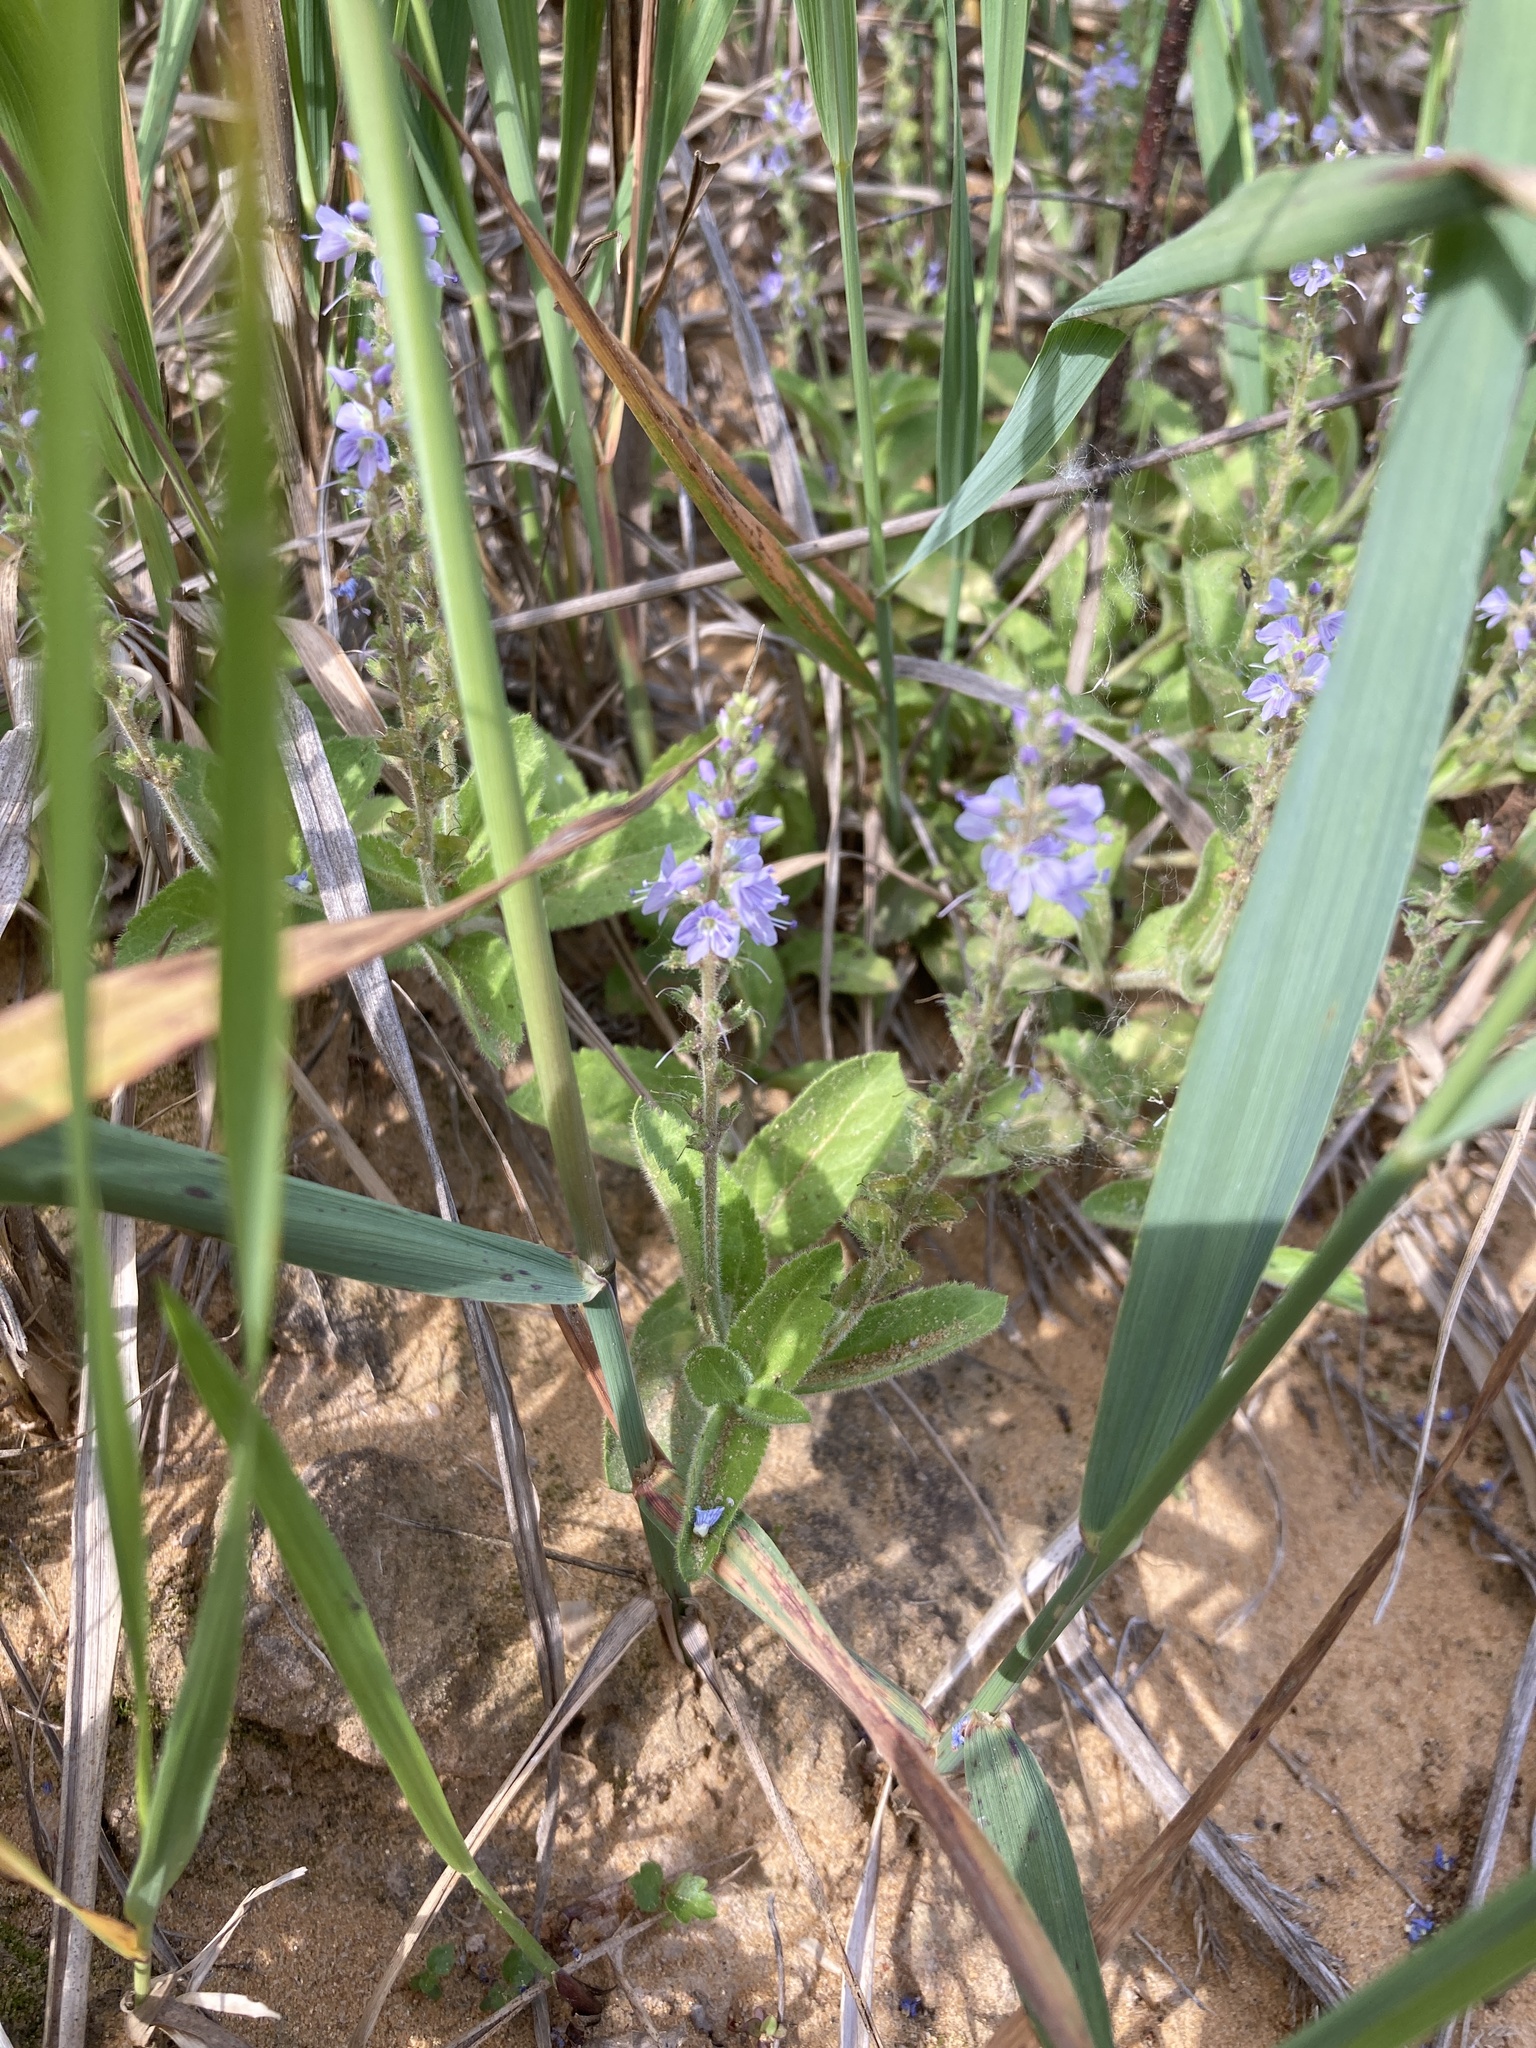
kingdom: Plantae
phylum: Tracheophyta
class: Magnoliopsida
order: Lamiales
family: Plantaginaceae
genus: Veronica
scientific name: Veronica officinalis
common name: Common speedwell
